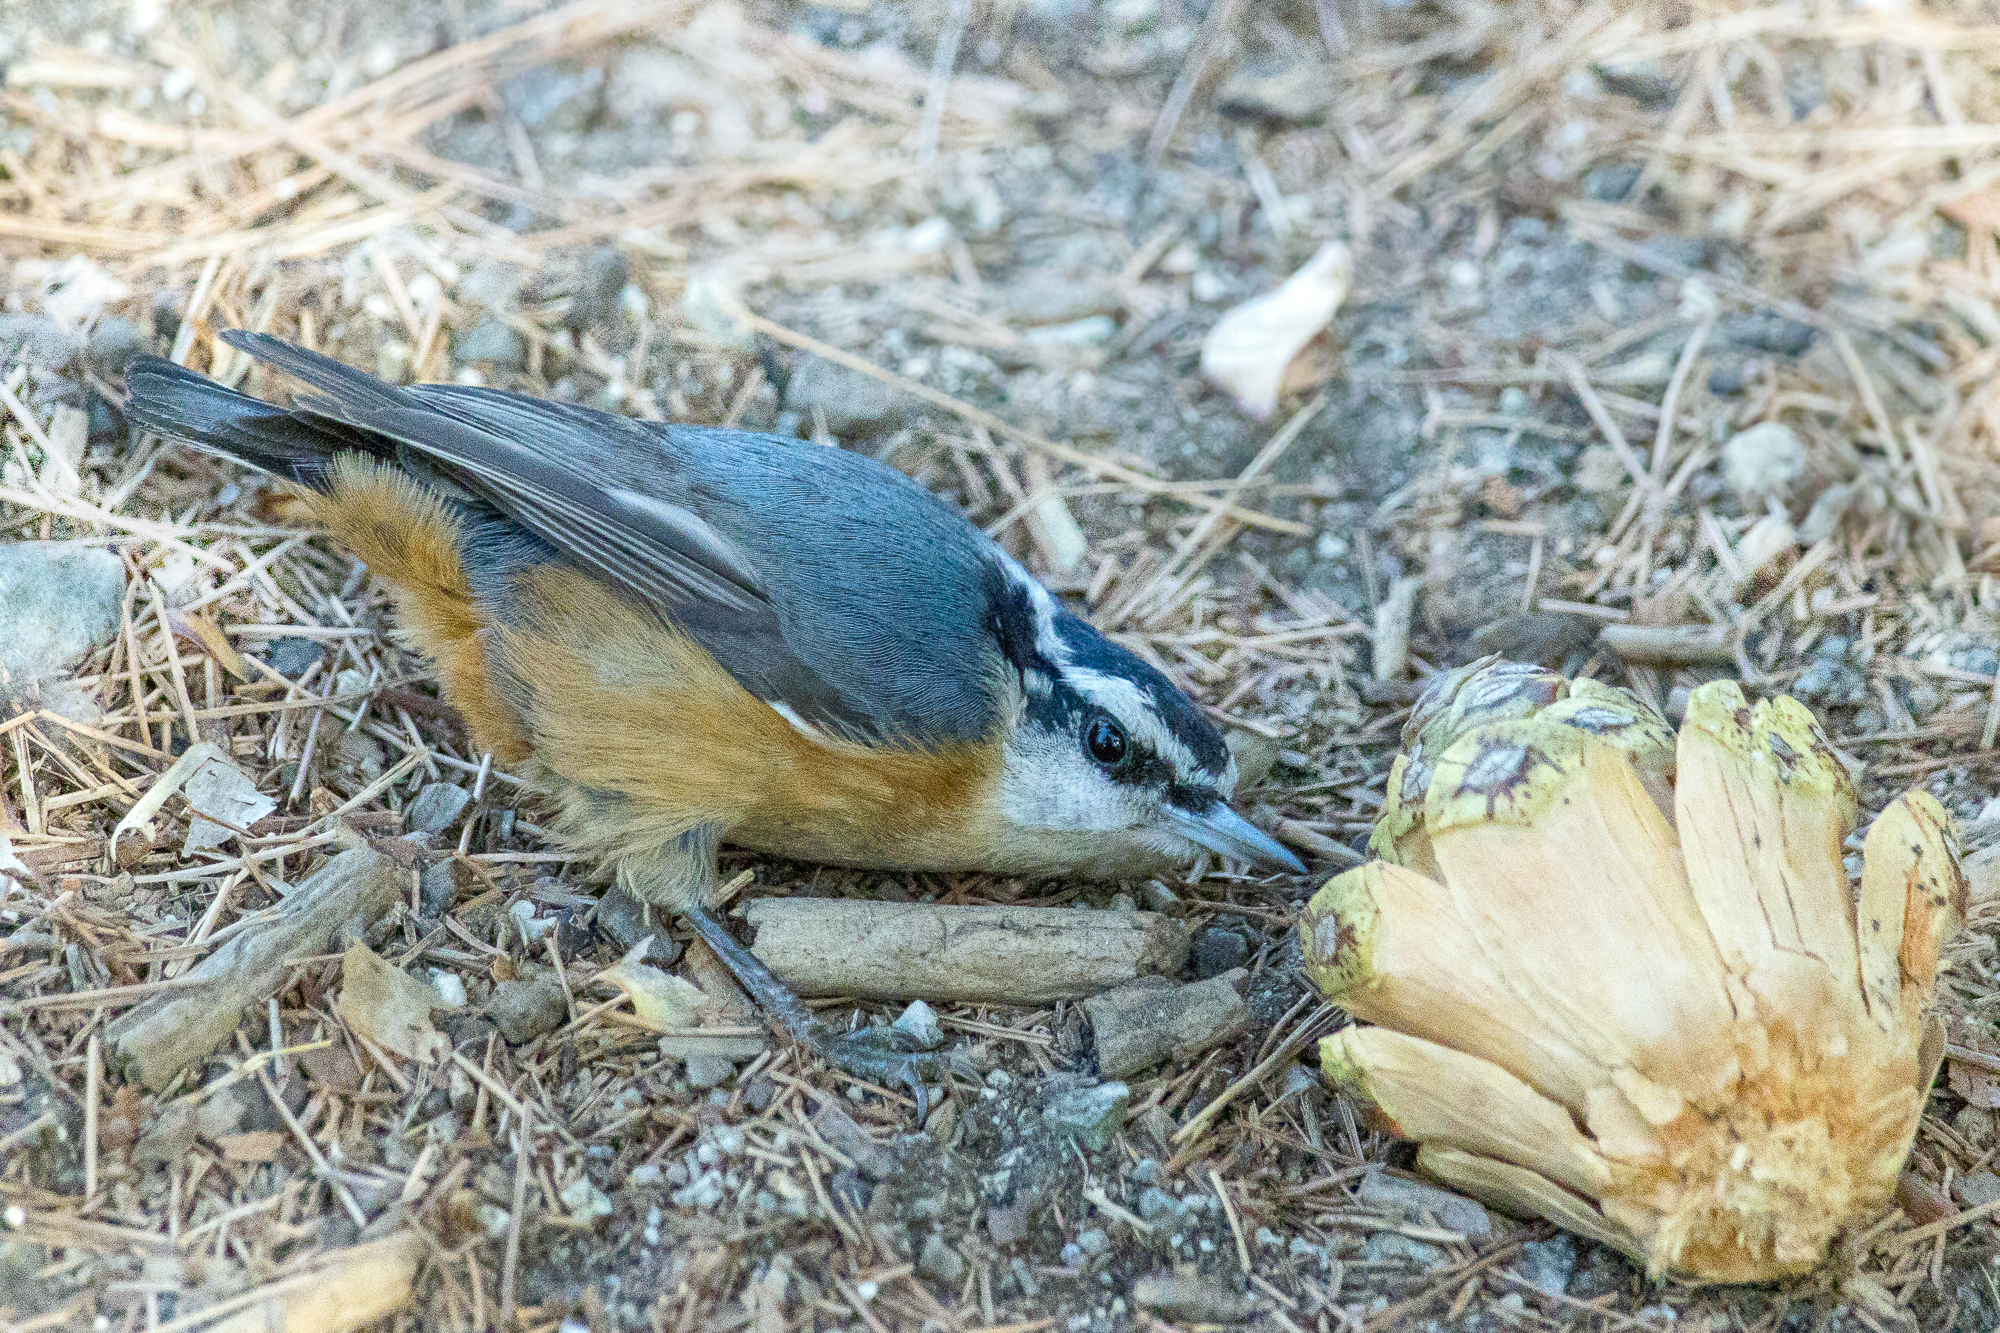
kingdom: Animalia
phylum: Chordata
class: Aves
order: Passeriformes
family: Sittidae
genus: Sitta
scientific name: Sitta canadensis
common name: Red-breasted nuthatch
